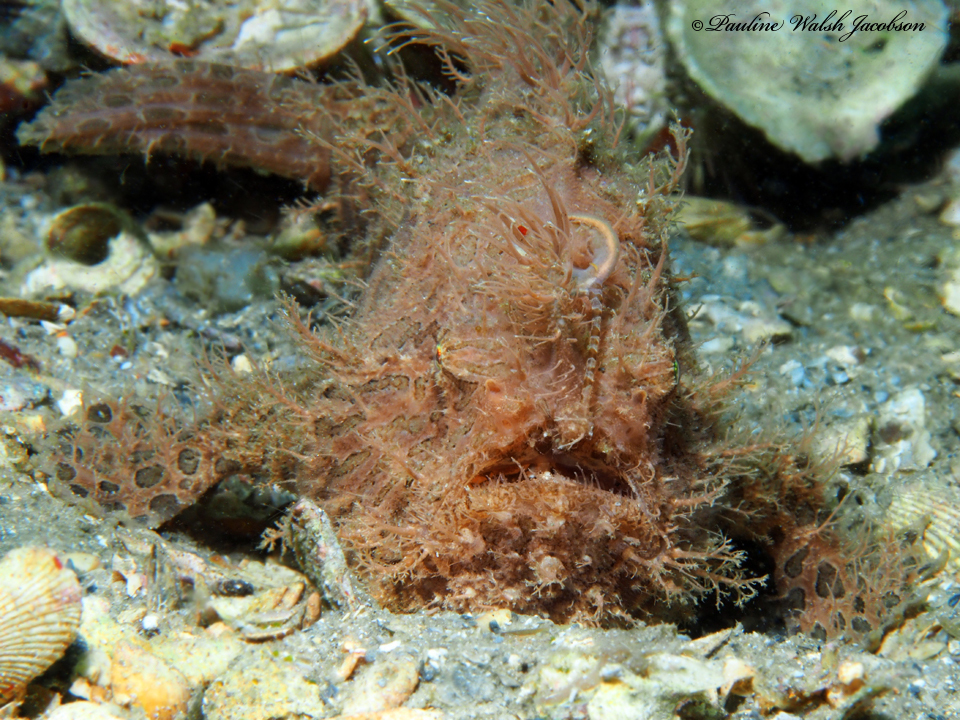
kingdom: Animalia
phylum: Chordata
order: Lophiiformes
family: Antennariidae
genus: Antennarius
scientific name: Antennarius striatus
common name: Striated frogfish
